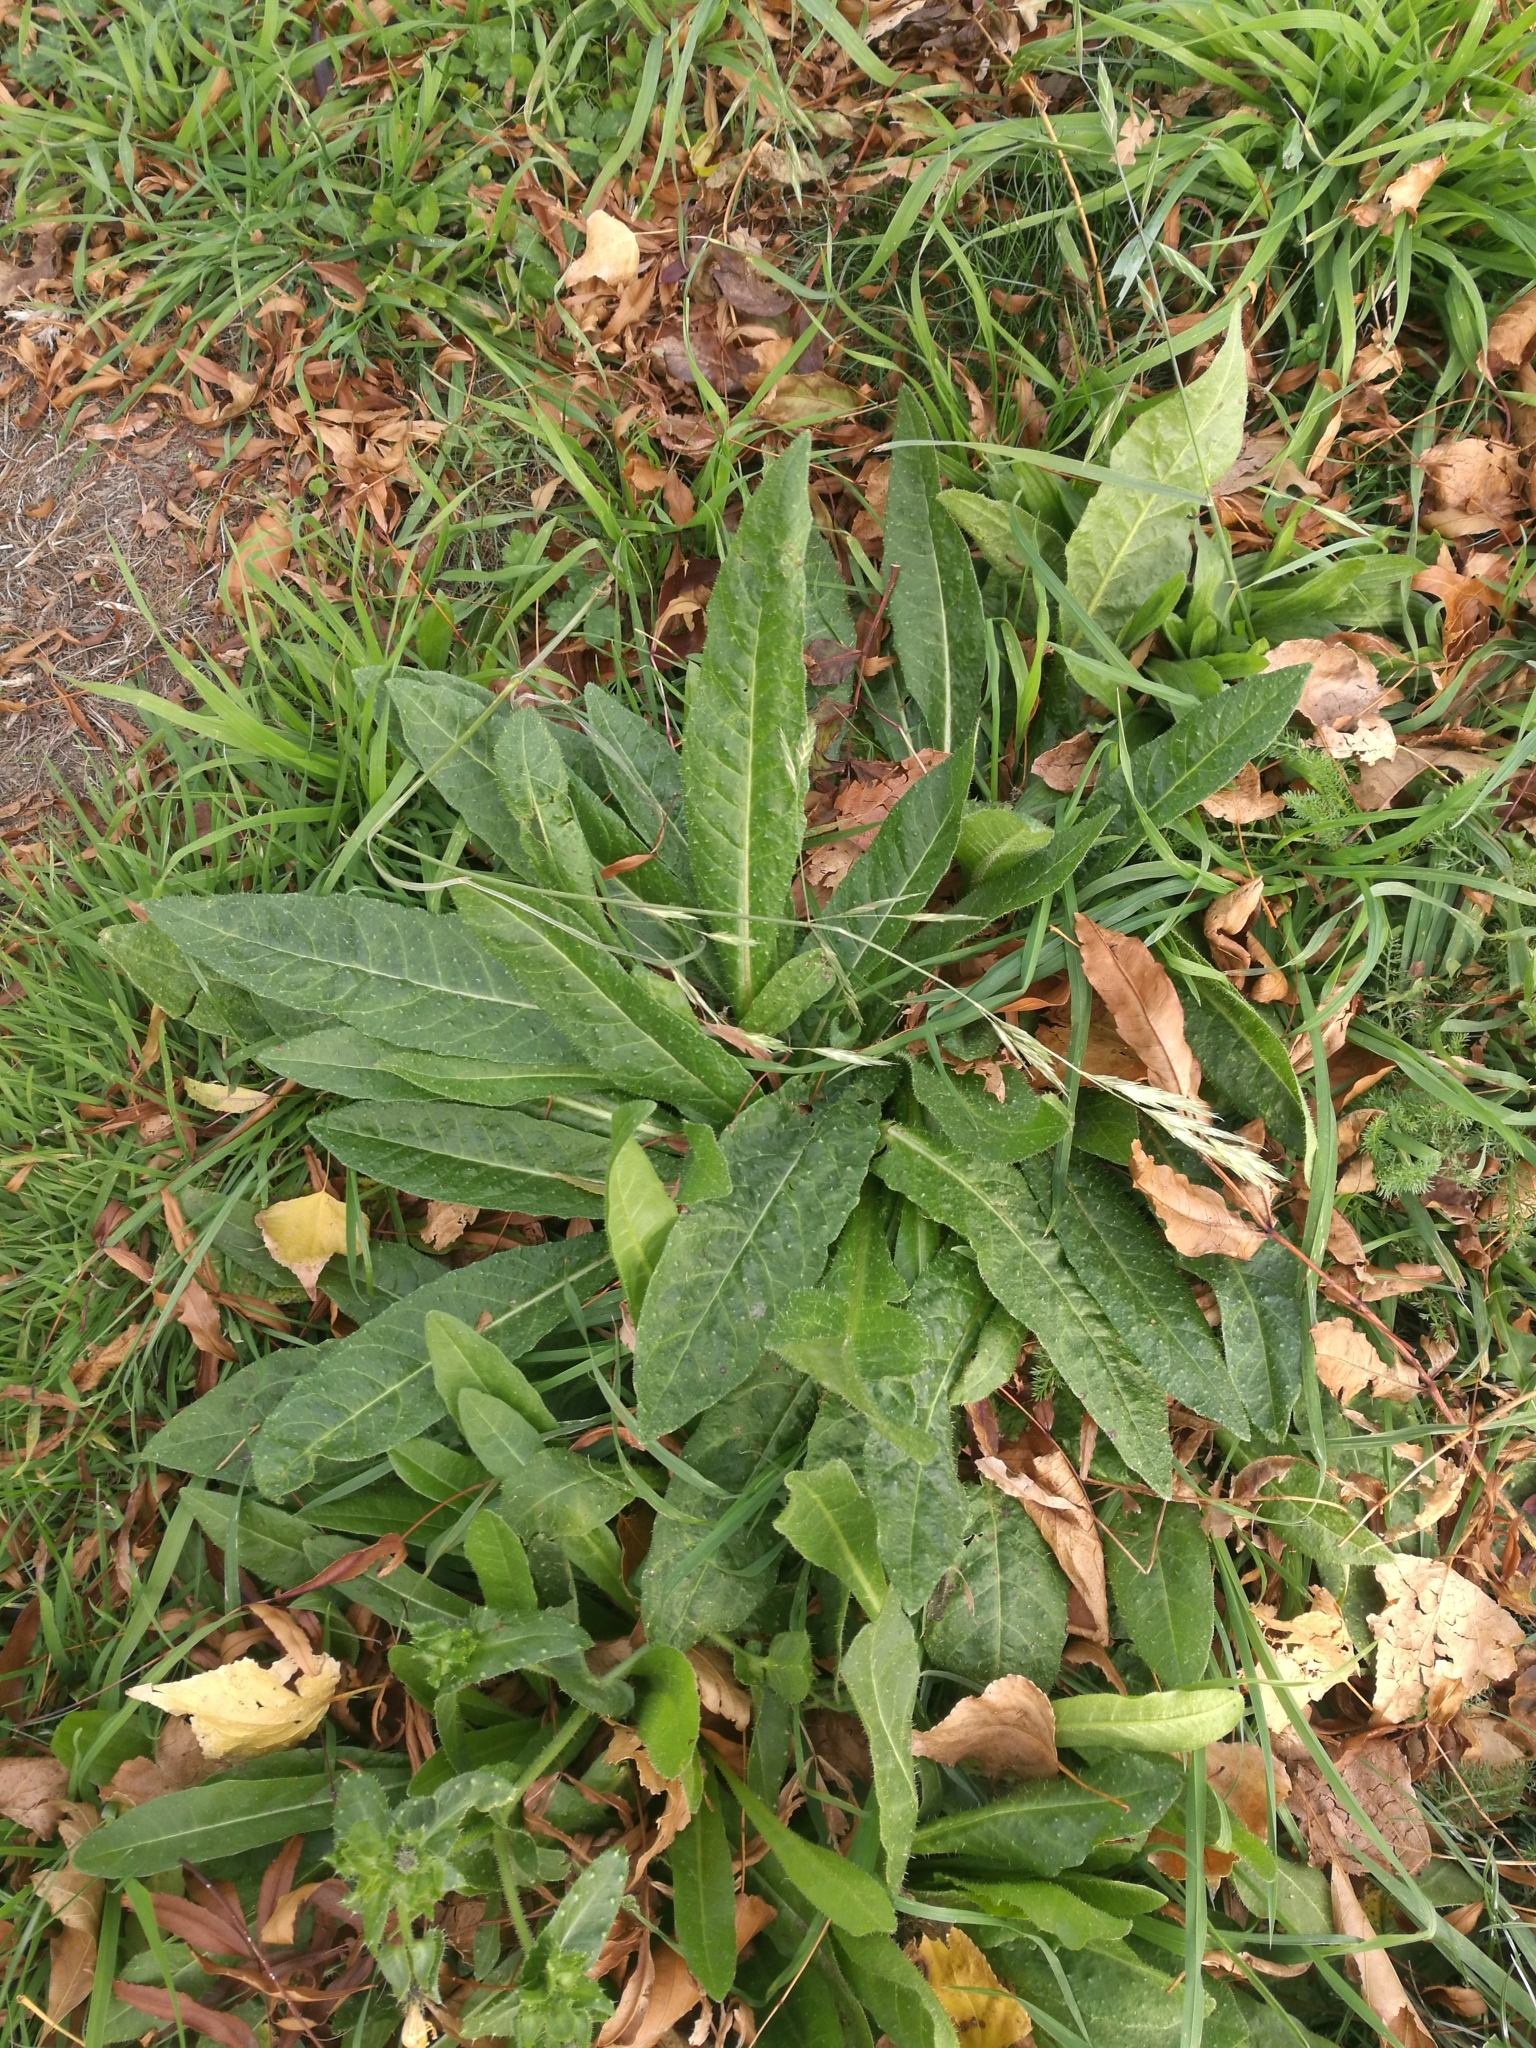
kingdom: Plantae
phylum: Tracheophyta
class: Magnoliopsida
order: Asterales
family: Asteraceae
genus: Helminthotheca
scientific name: Helminthotheca echioides
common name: Ox-tongue
